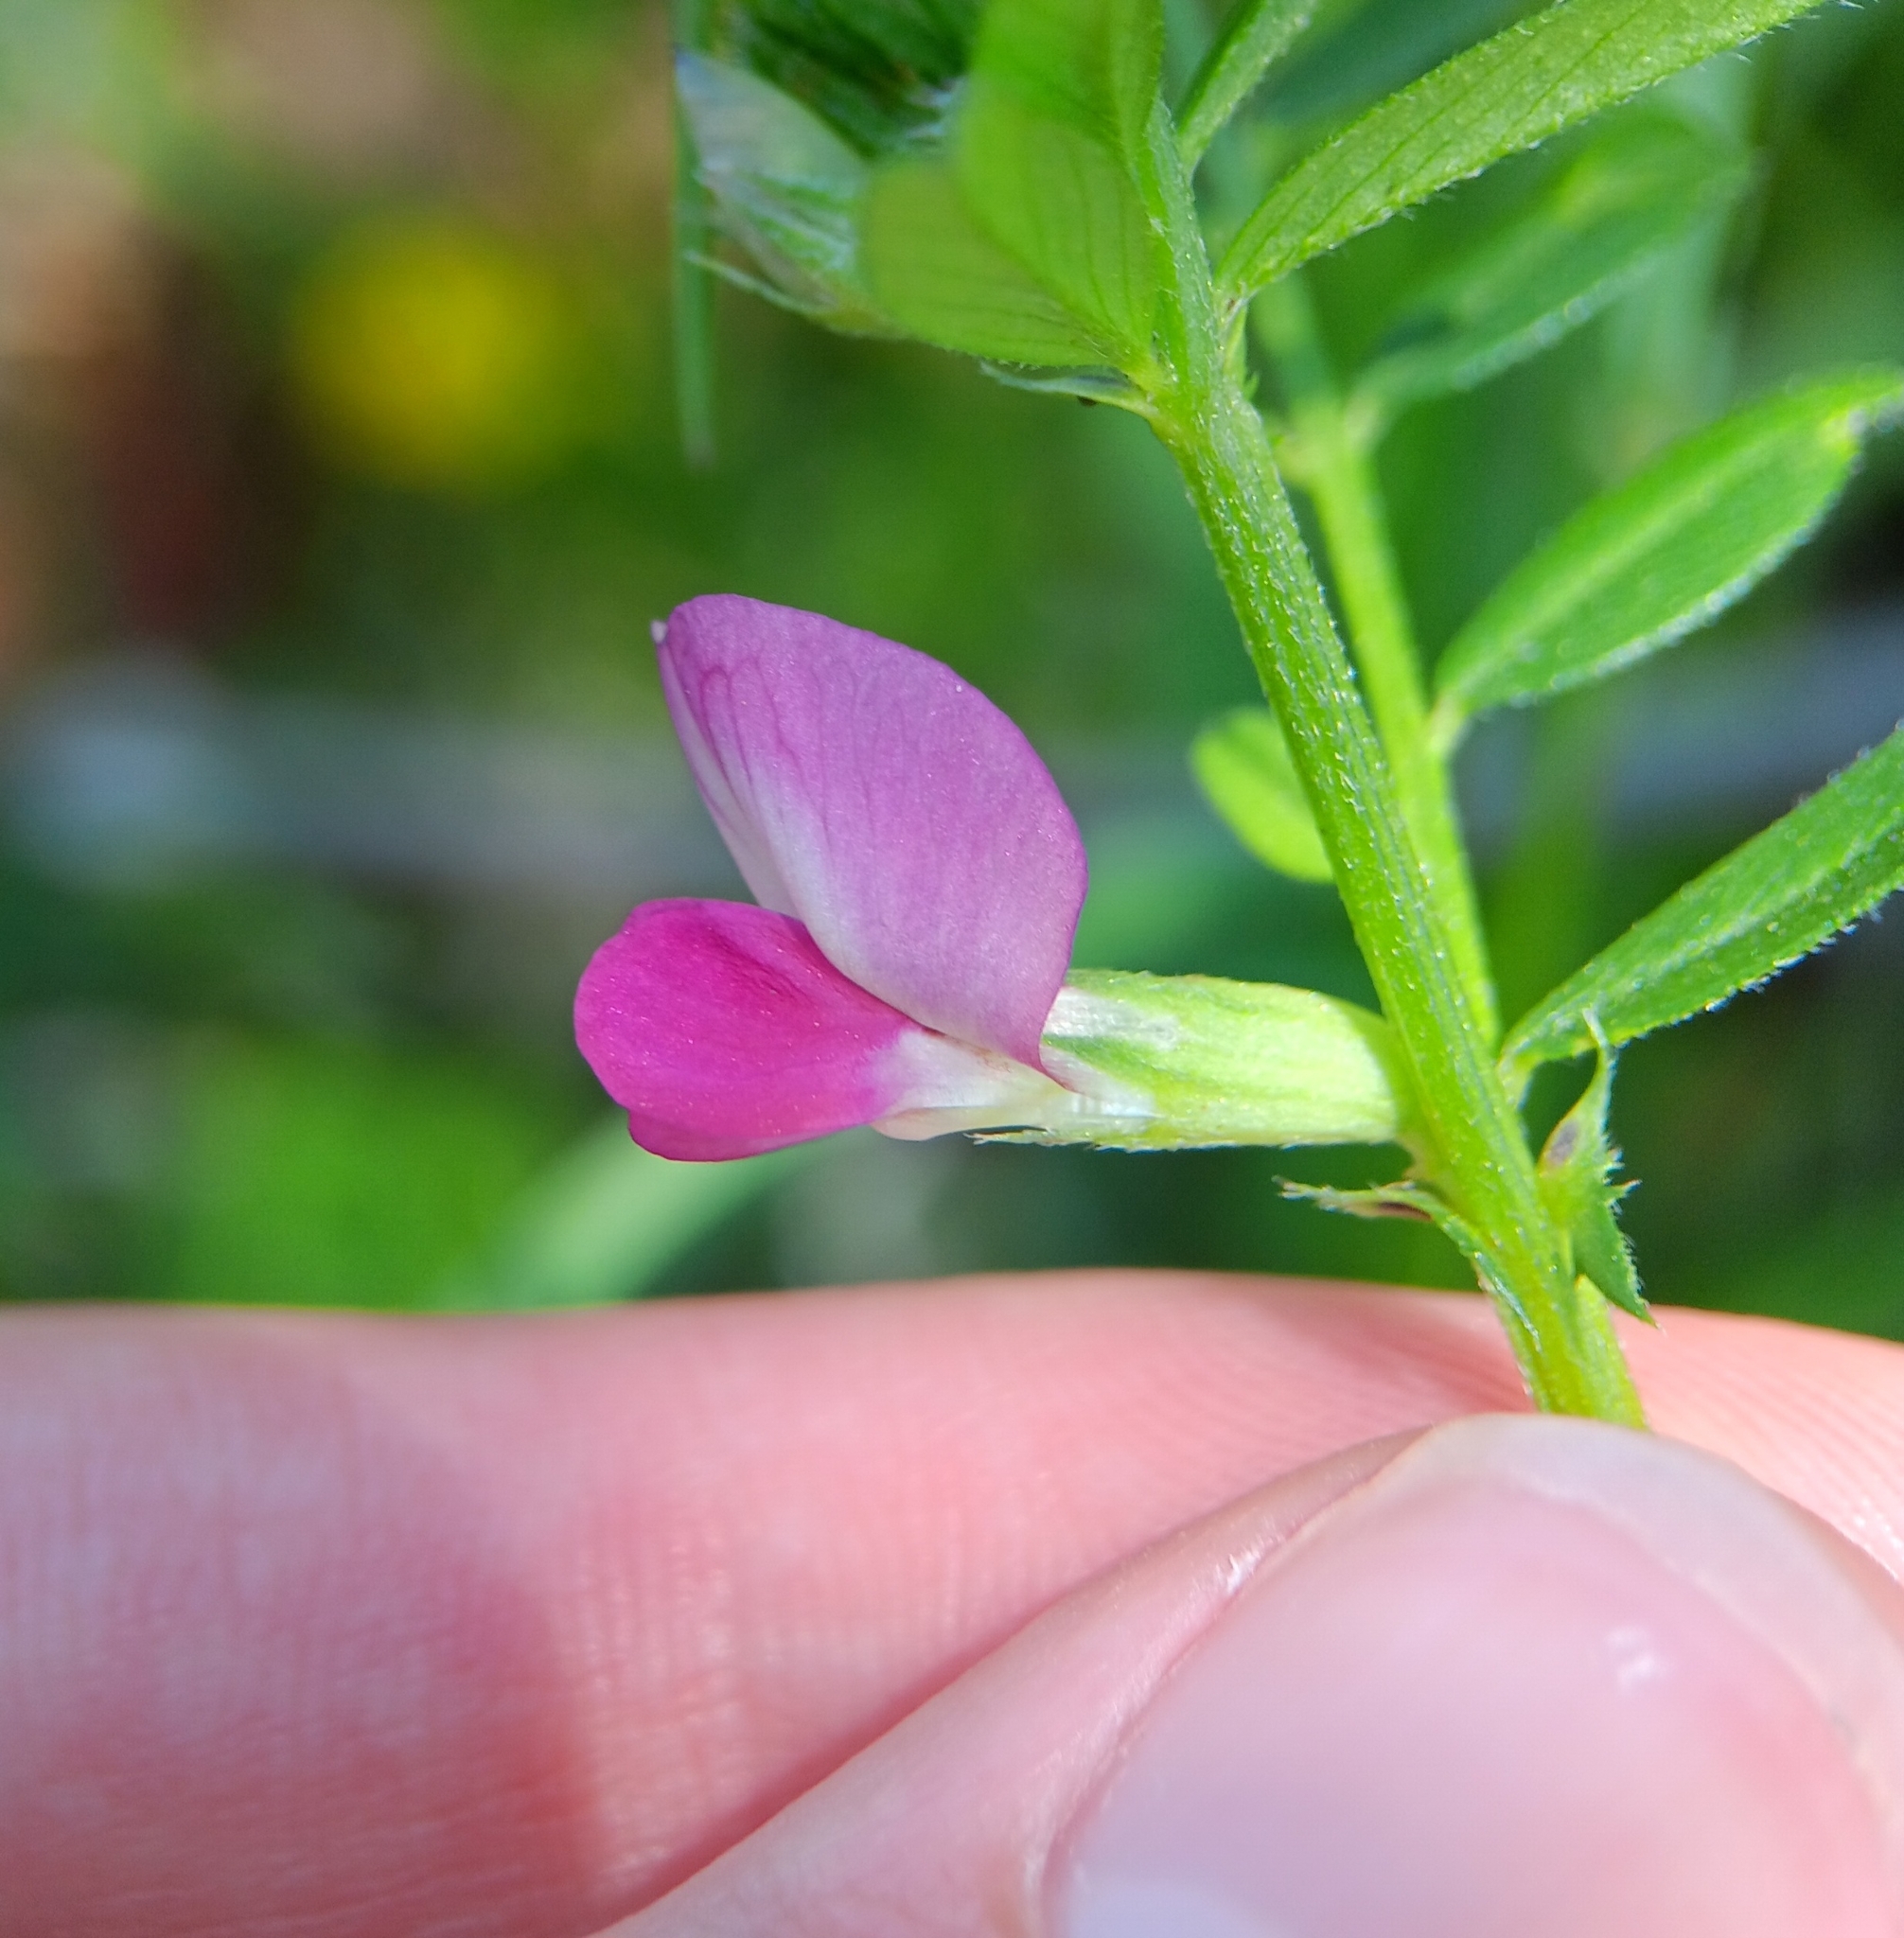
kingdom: Plantae
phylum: Tracheophyta
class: Magnoliopsida
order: Fabales
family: Fabaceae
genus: Vicia
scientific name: Vicia sativa
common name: Garden vetch
